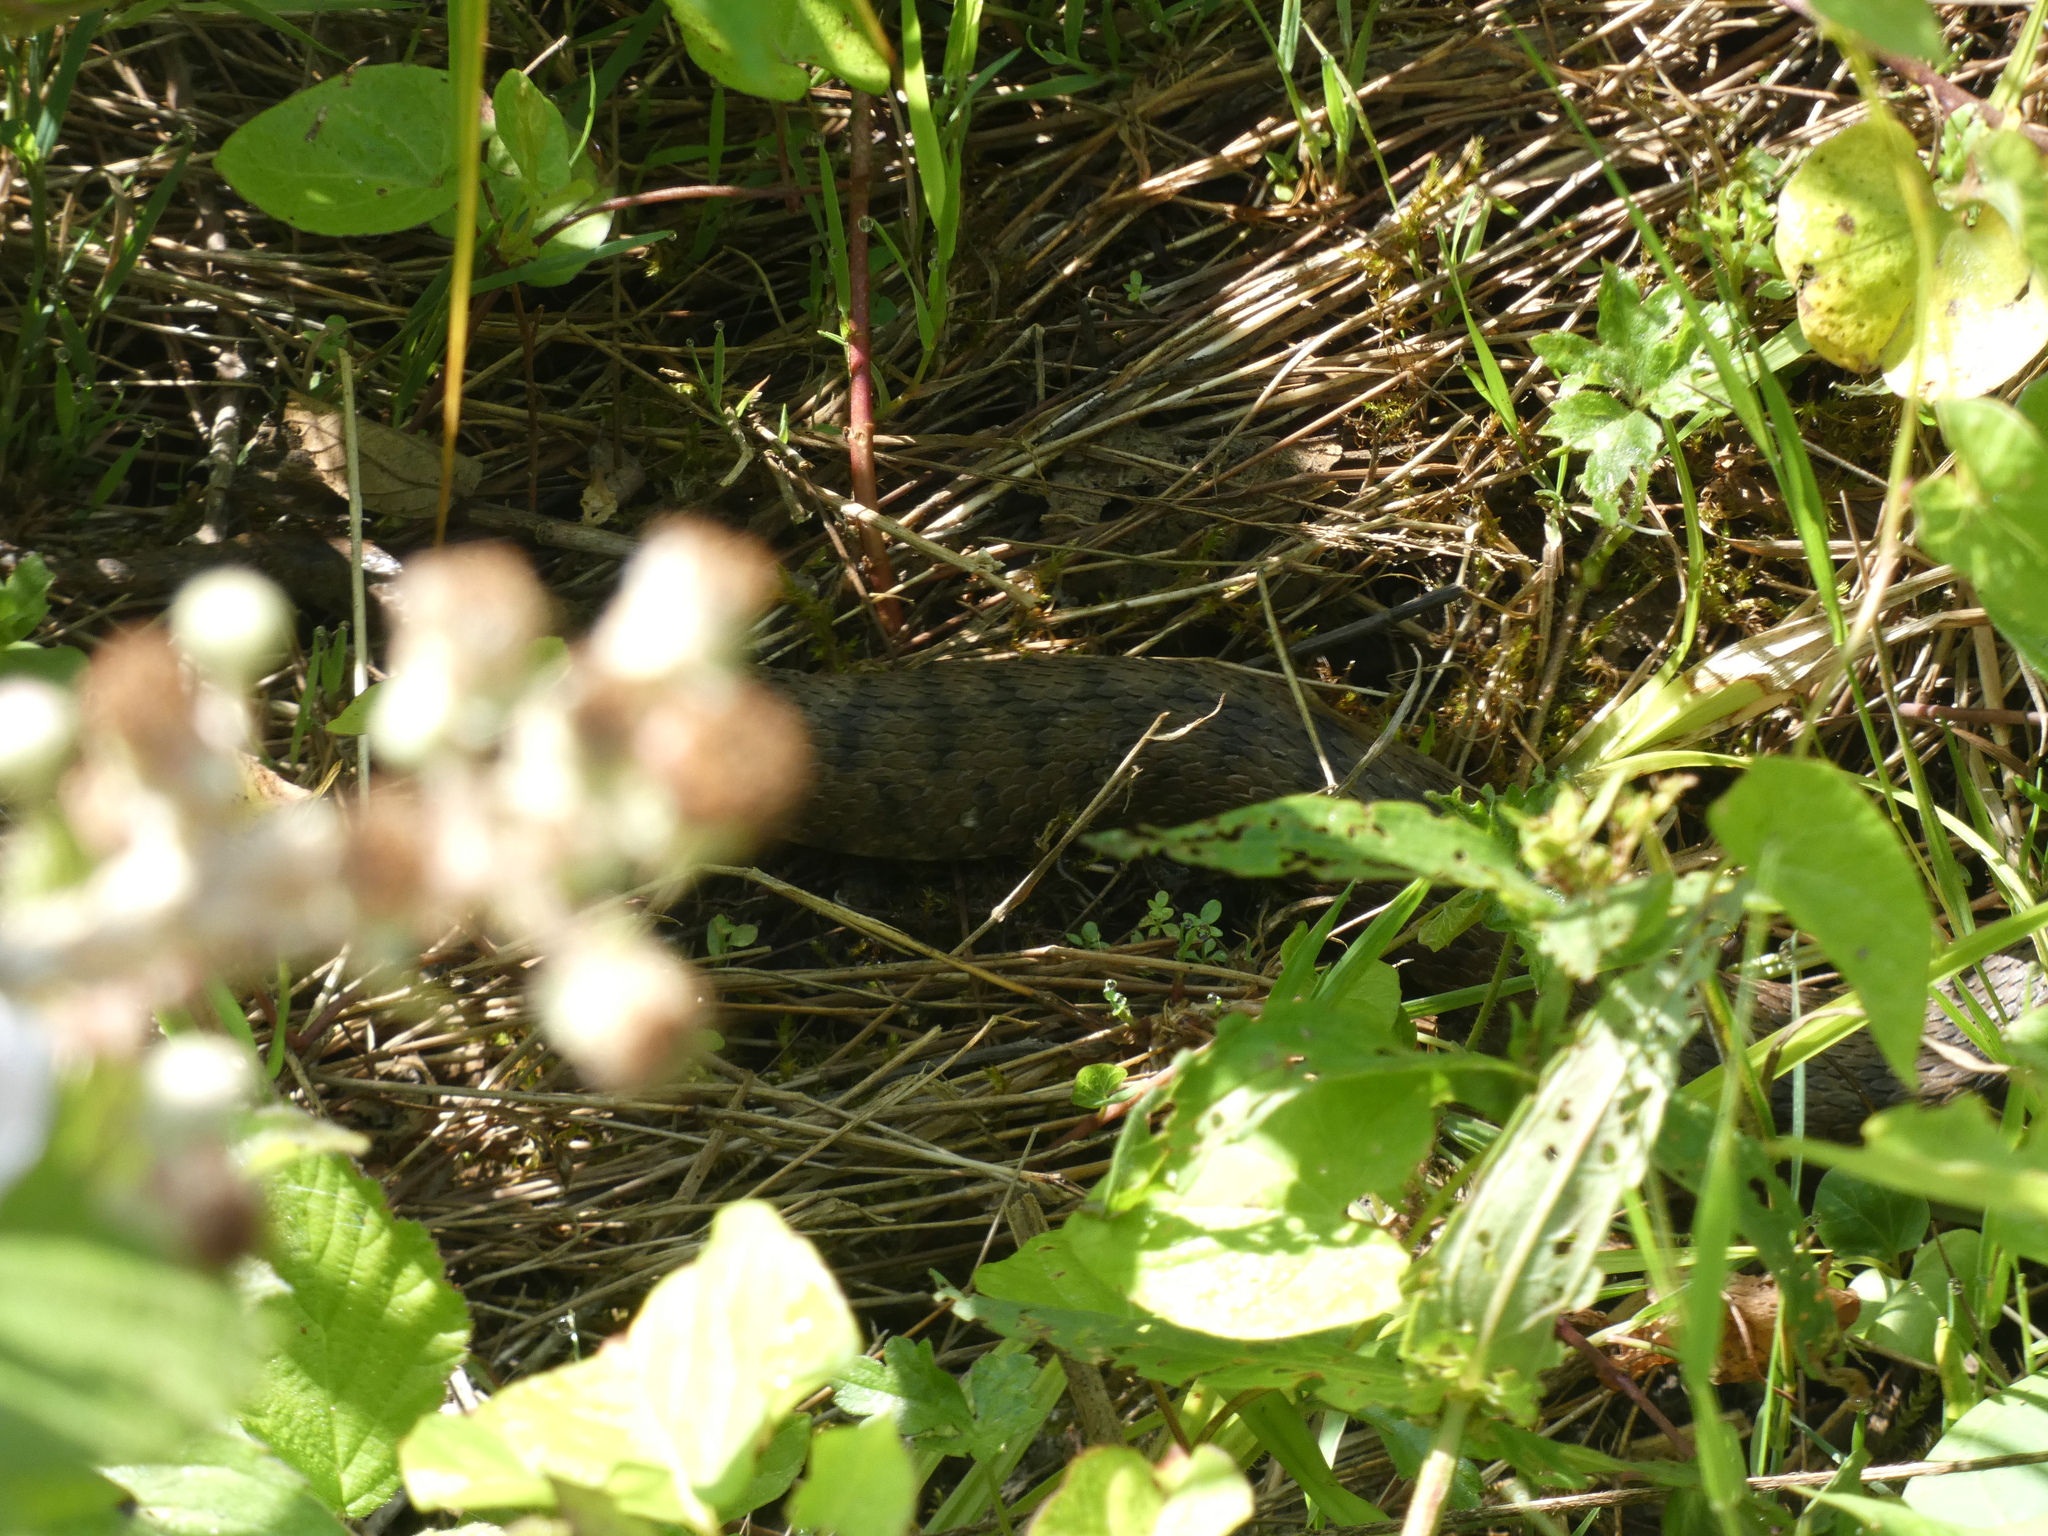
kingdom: Animalia
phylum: Chordata
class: Squamata
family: Viperidae
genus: Vipera
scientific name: Vipera aspis
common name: Asp viper
